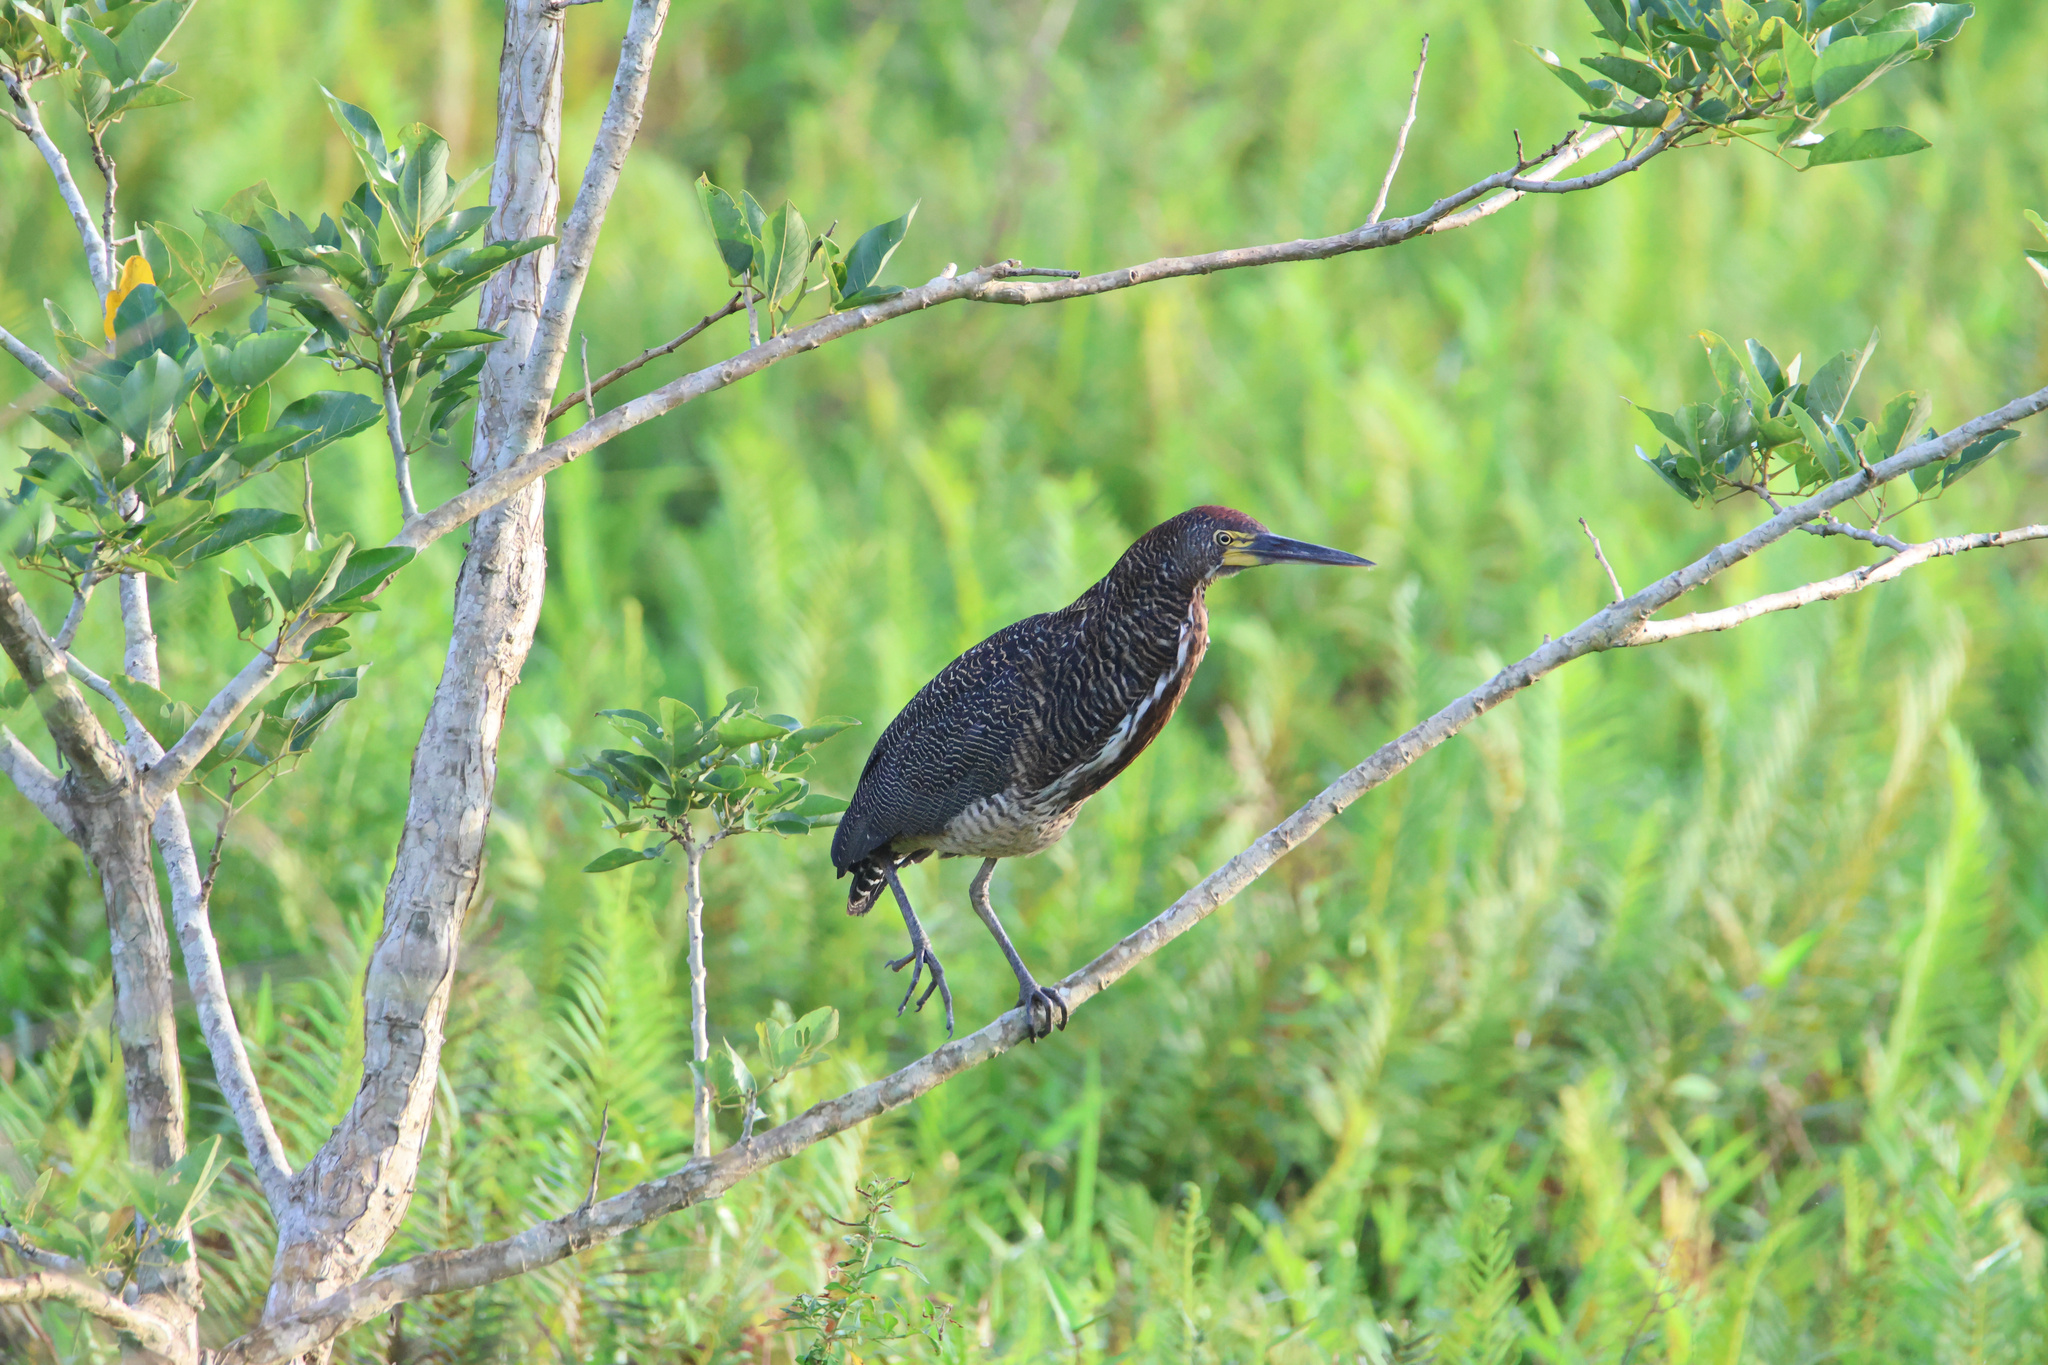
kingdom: Animalia
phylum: Chordata
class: Aves
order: Pelecaniformes
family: Ardeidae
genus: Tigrisoma
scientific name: Tigrisoma lineatum
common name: Rufescent tiger-heron
